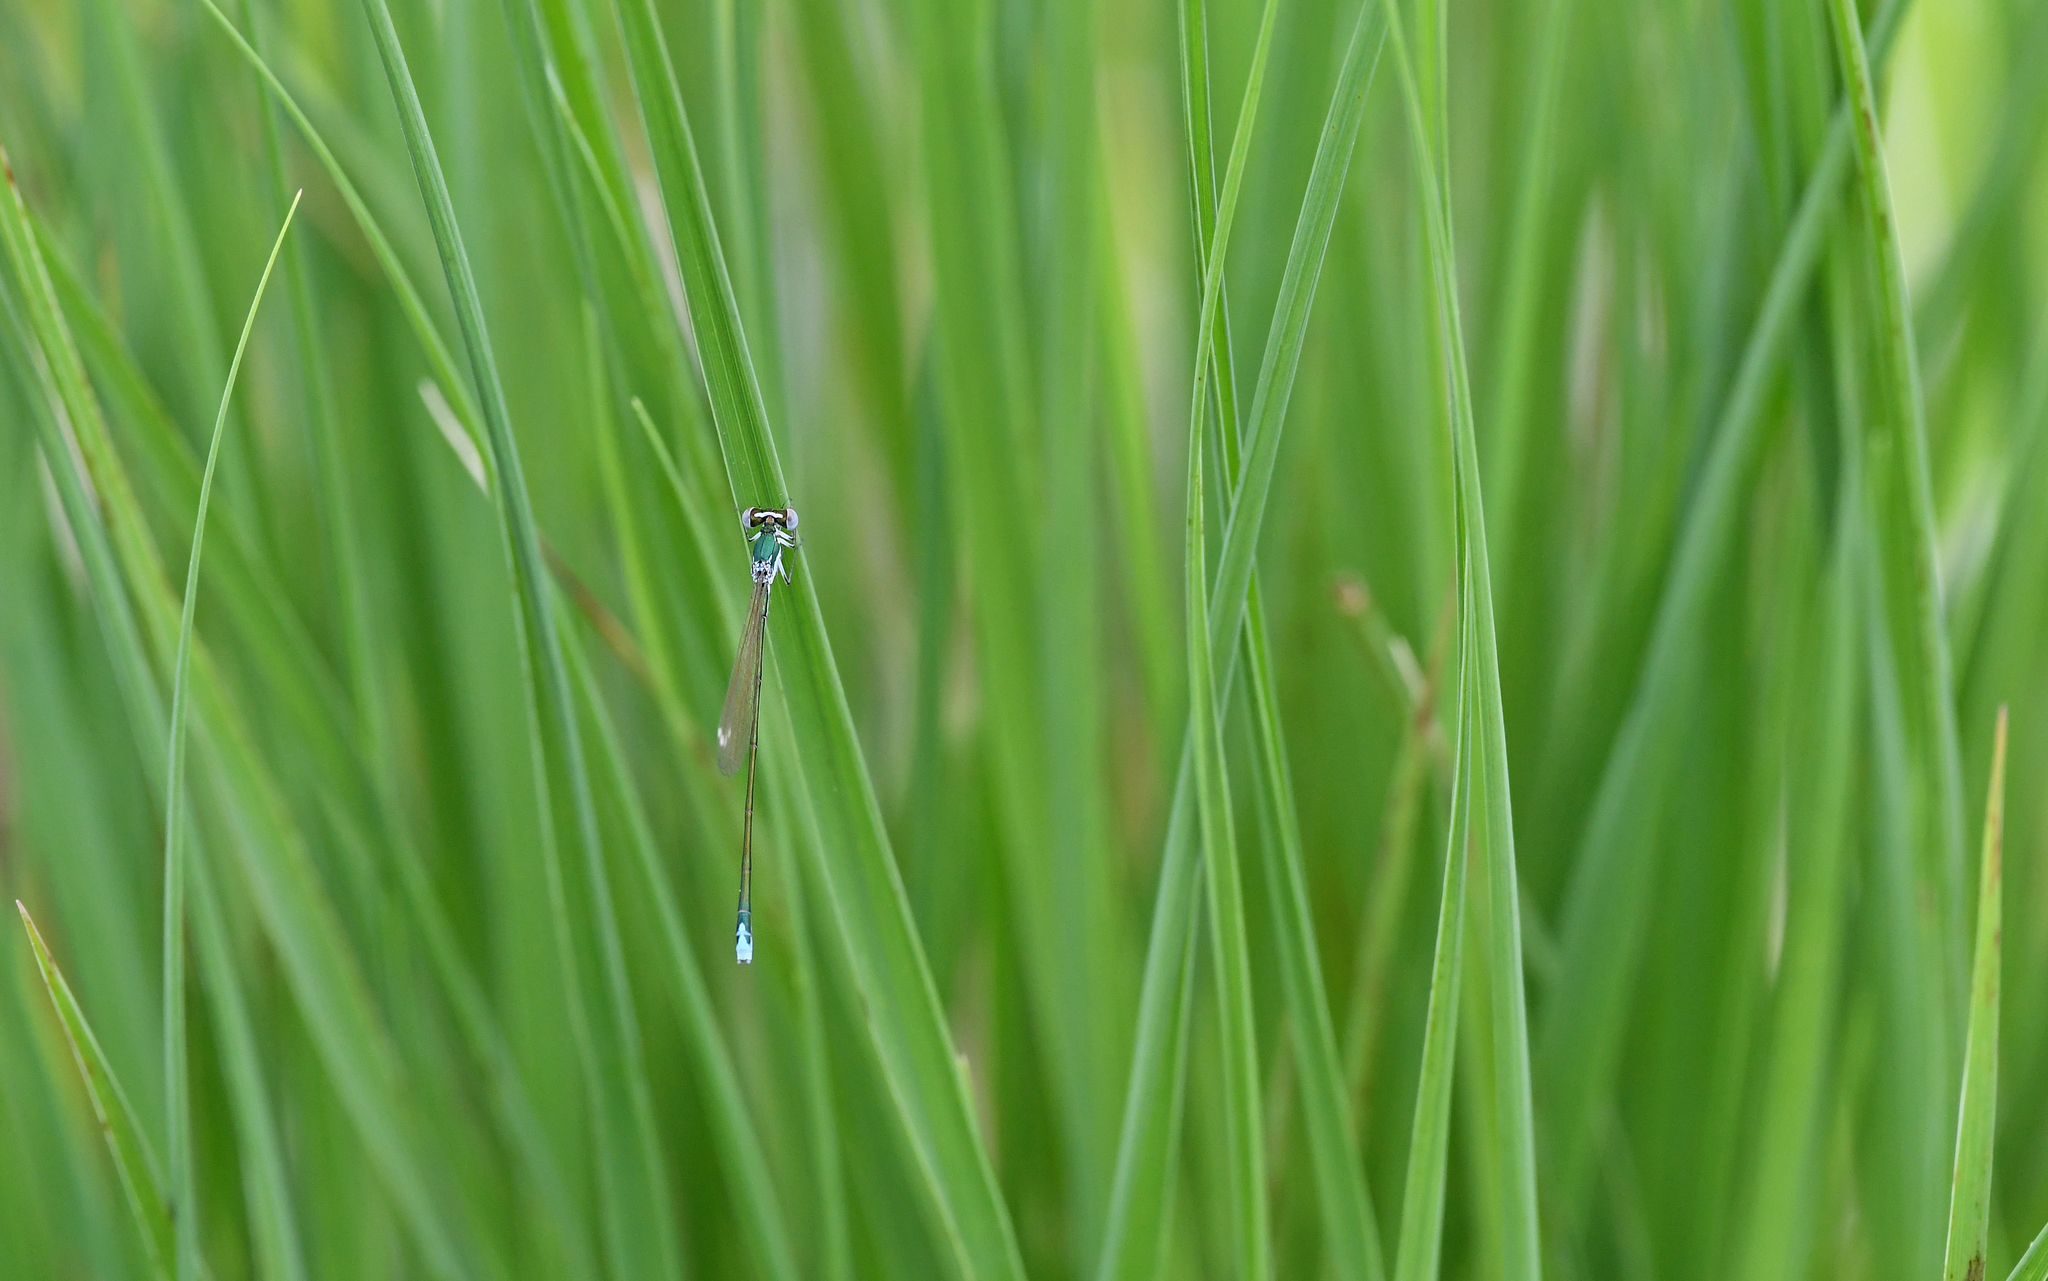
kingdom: Animalia
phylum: Arthropoda
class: Insecta
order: Odonata
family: Coenagrionidae
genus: Nehalennia
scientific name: Nehalennia speciosa
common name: Sedgling
